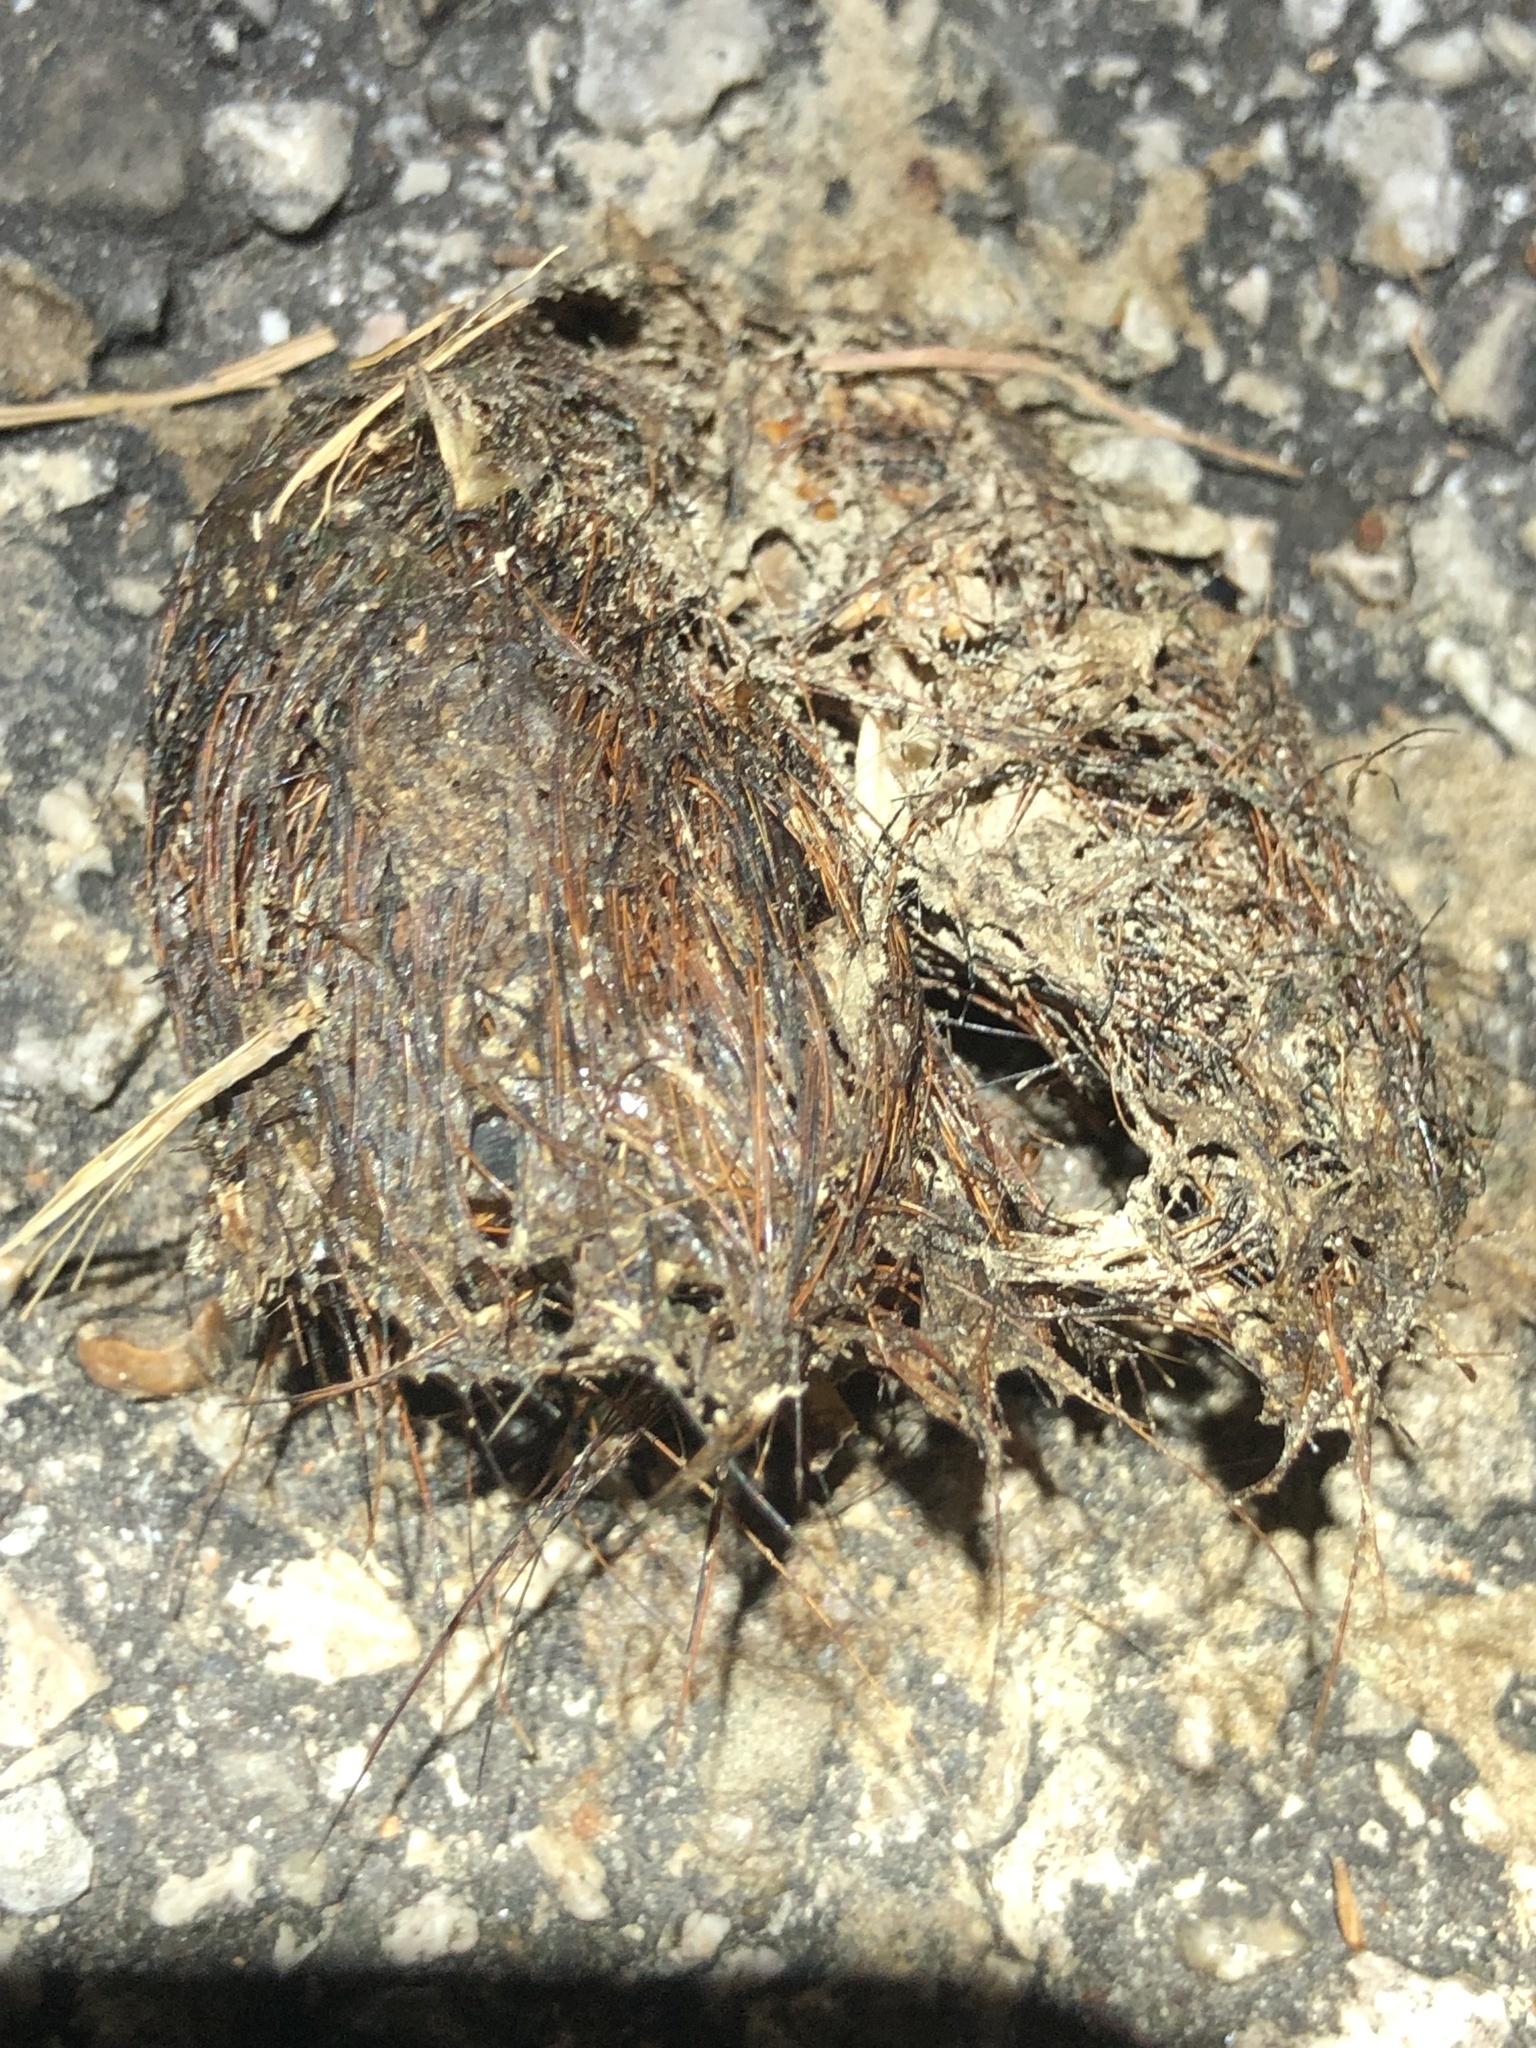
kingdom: Animalia
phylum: Chordata
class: Mammalia
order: Carnivora
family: Canidae
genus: Canis
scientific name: Canis latrans
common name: Coyote
